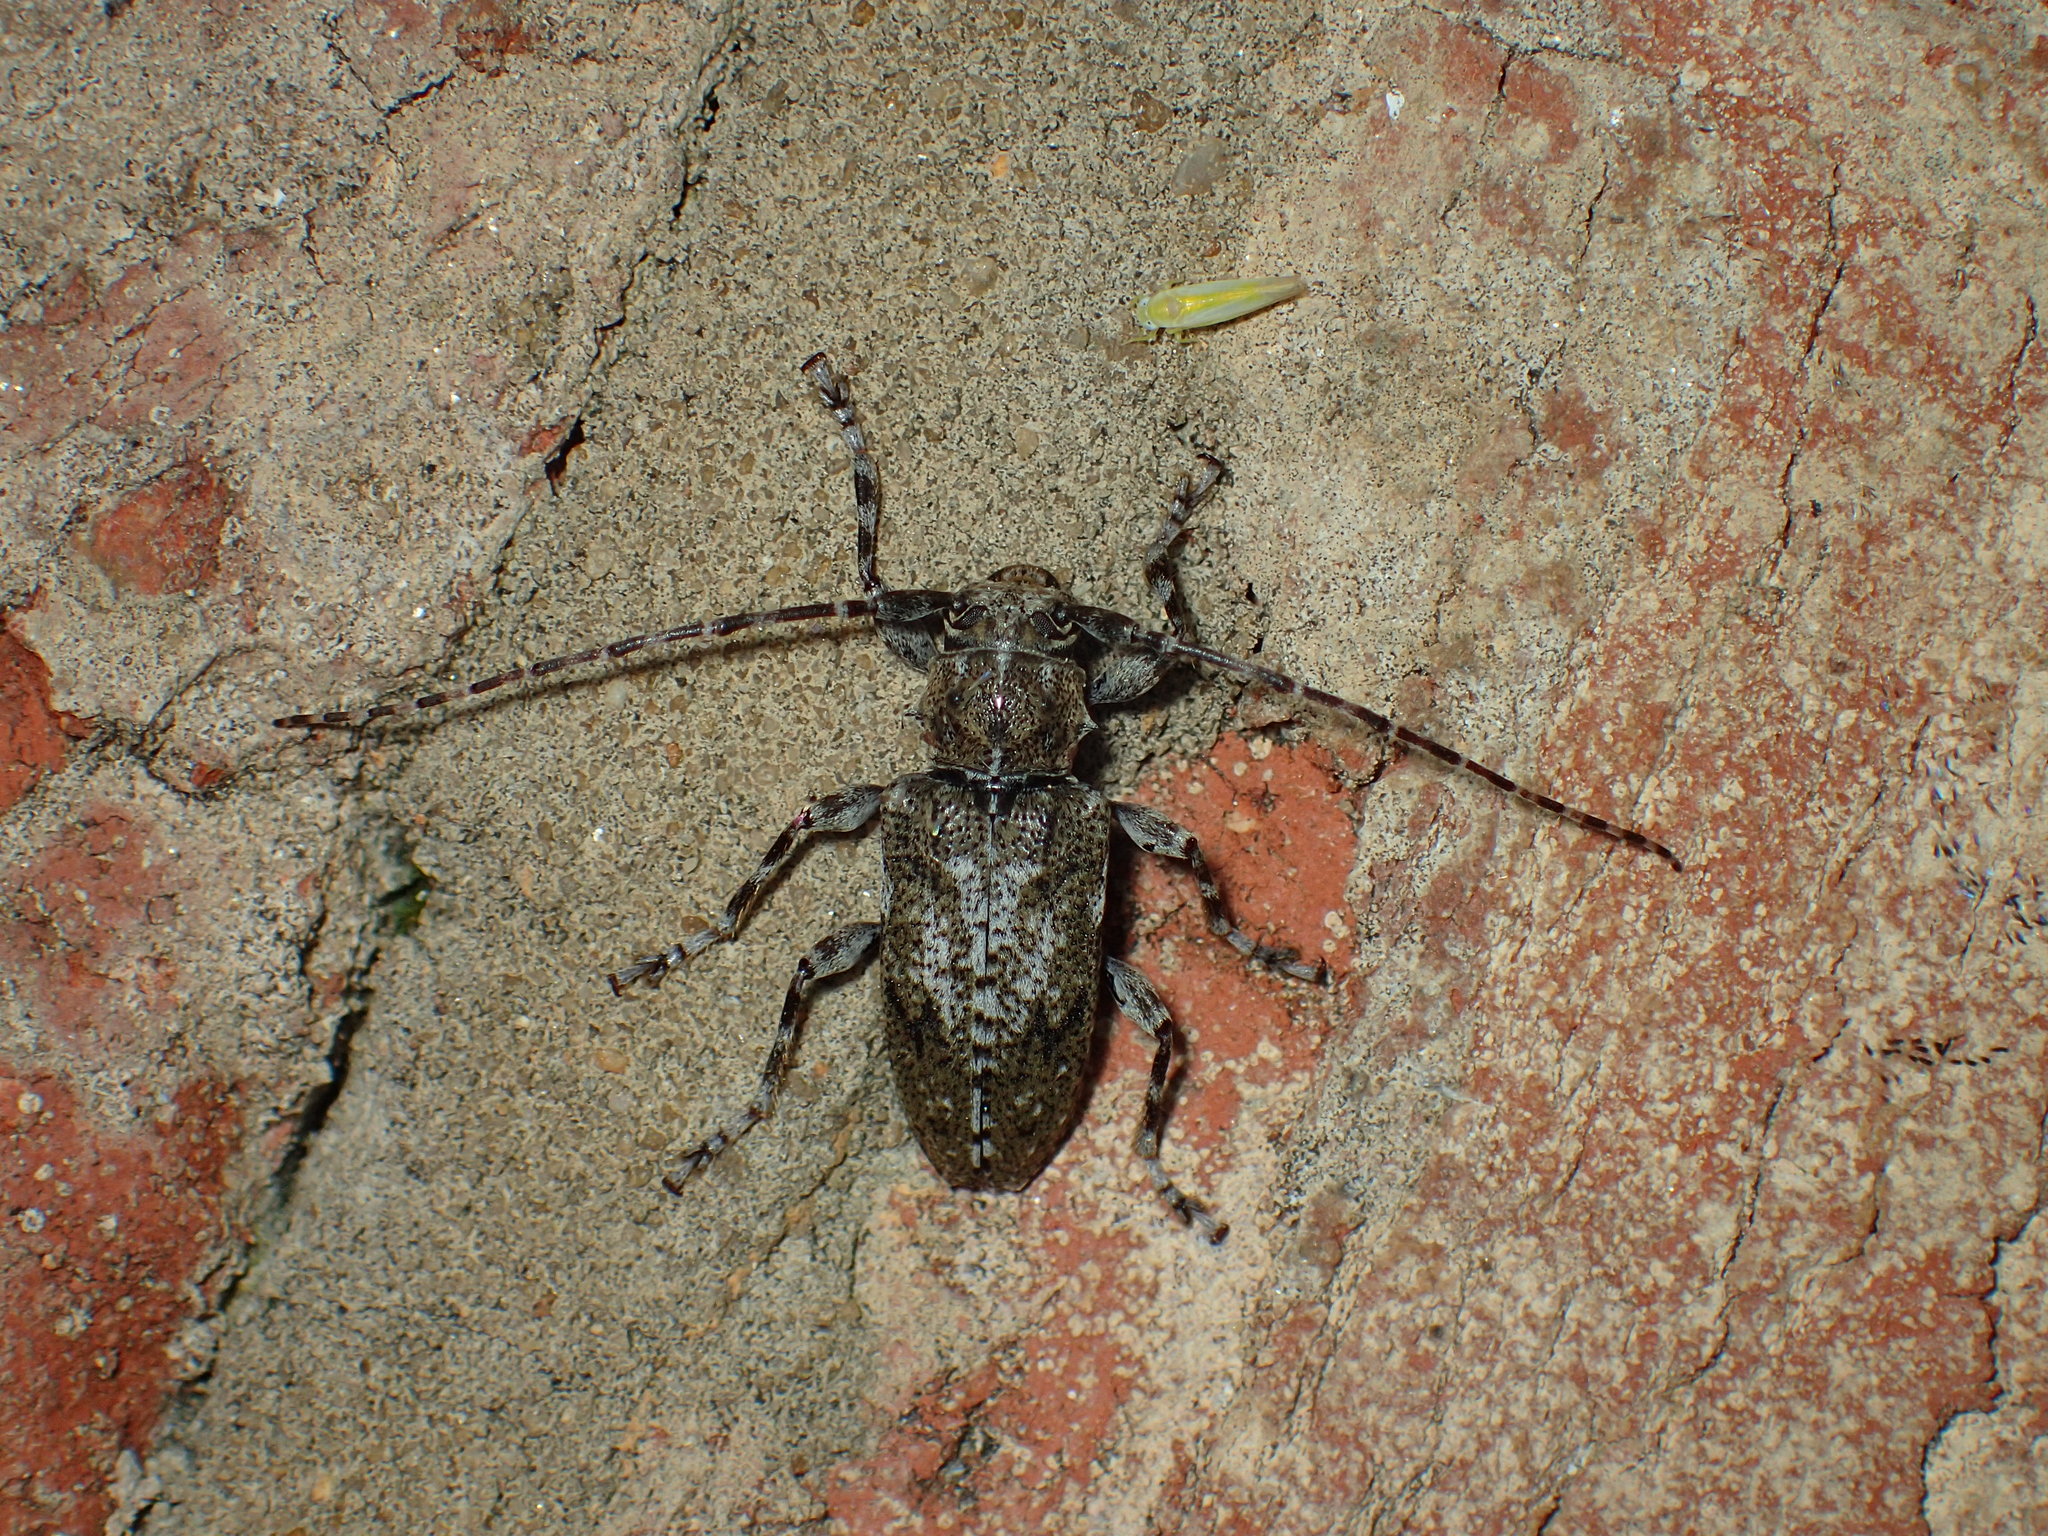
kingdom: Animalia
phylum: Arthropoda
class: Insecta
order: Coleoptera
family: Cerambycidae
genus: Aegomorphus
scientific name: Aegomorphus modestus
